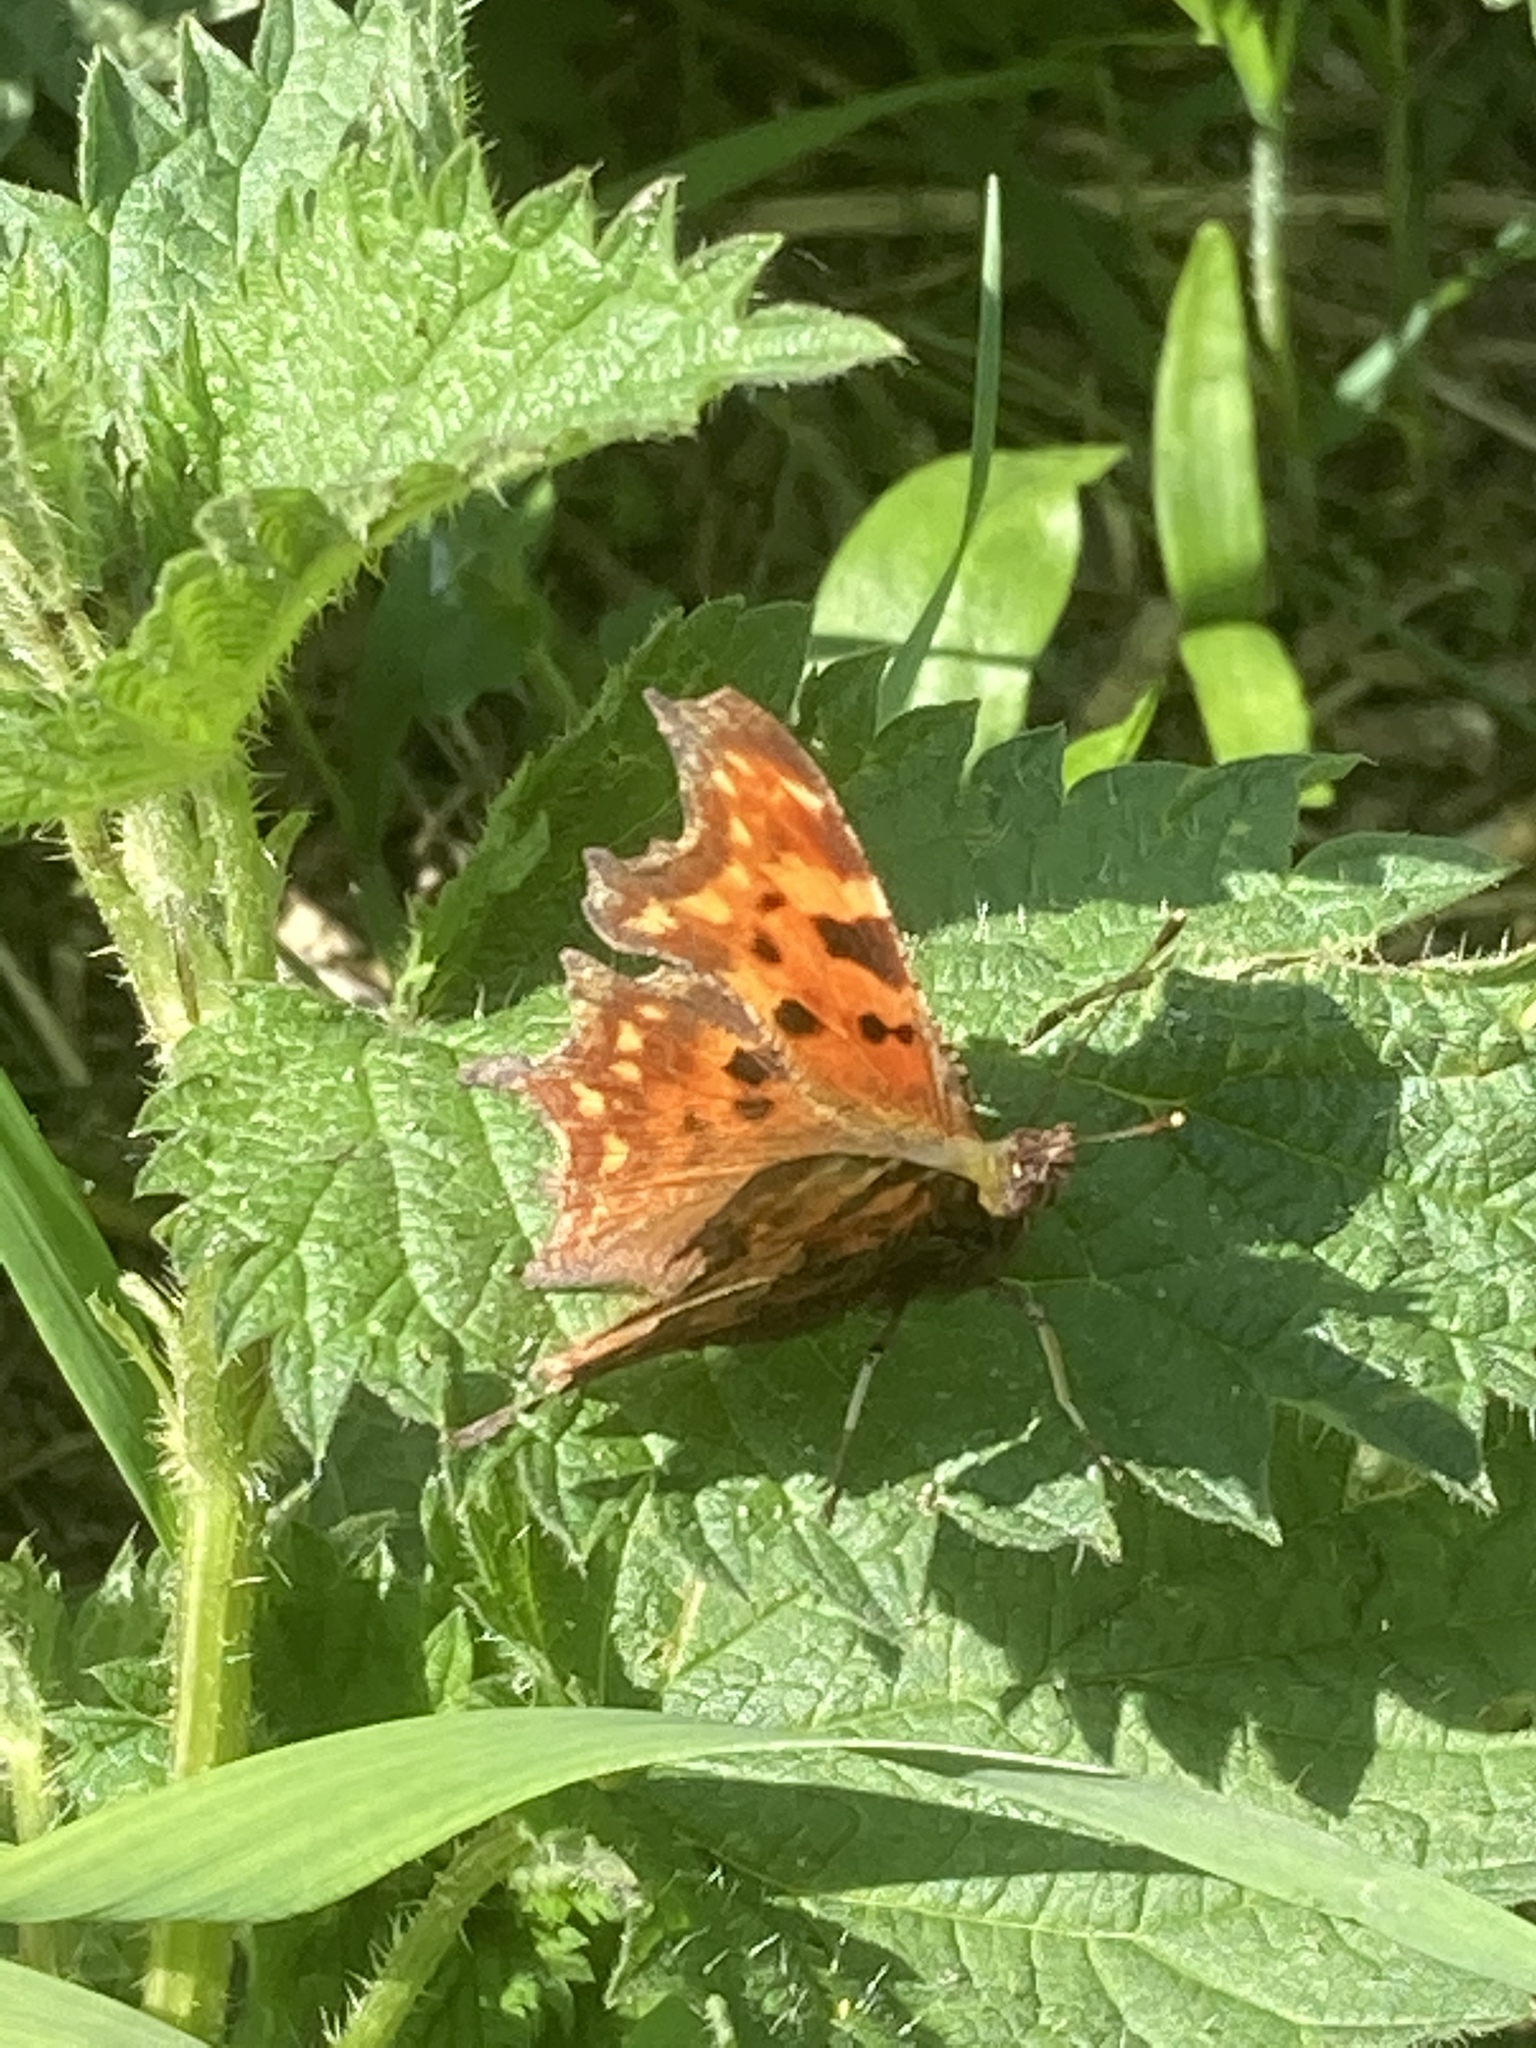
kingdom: Animalia
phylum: Arthropoda
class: Insecta
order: Lepidoptera
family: Nymphalidae
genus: Polygonia
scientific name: Polygonia c-album
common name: Comma
